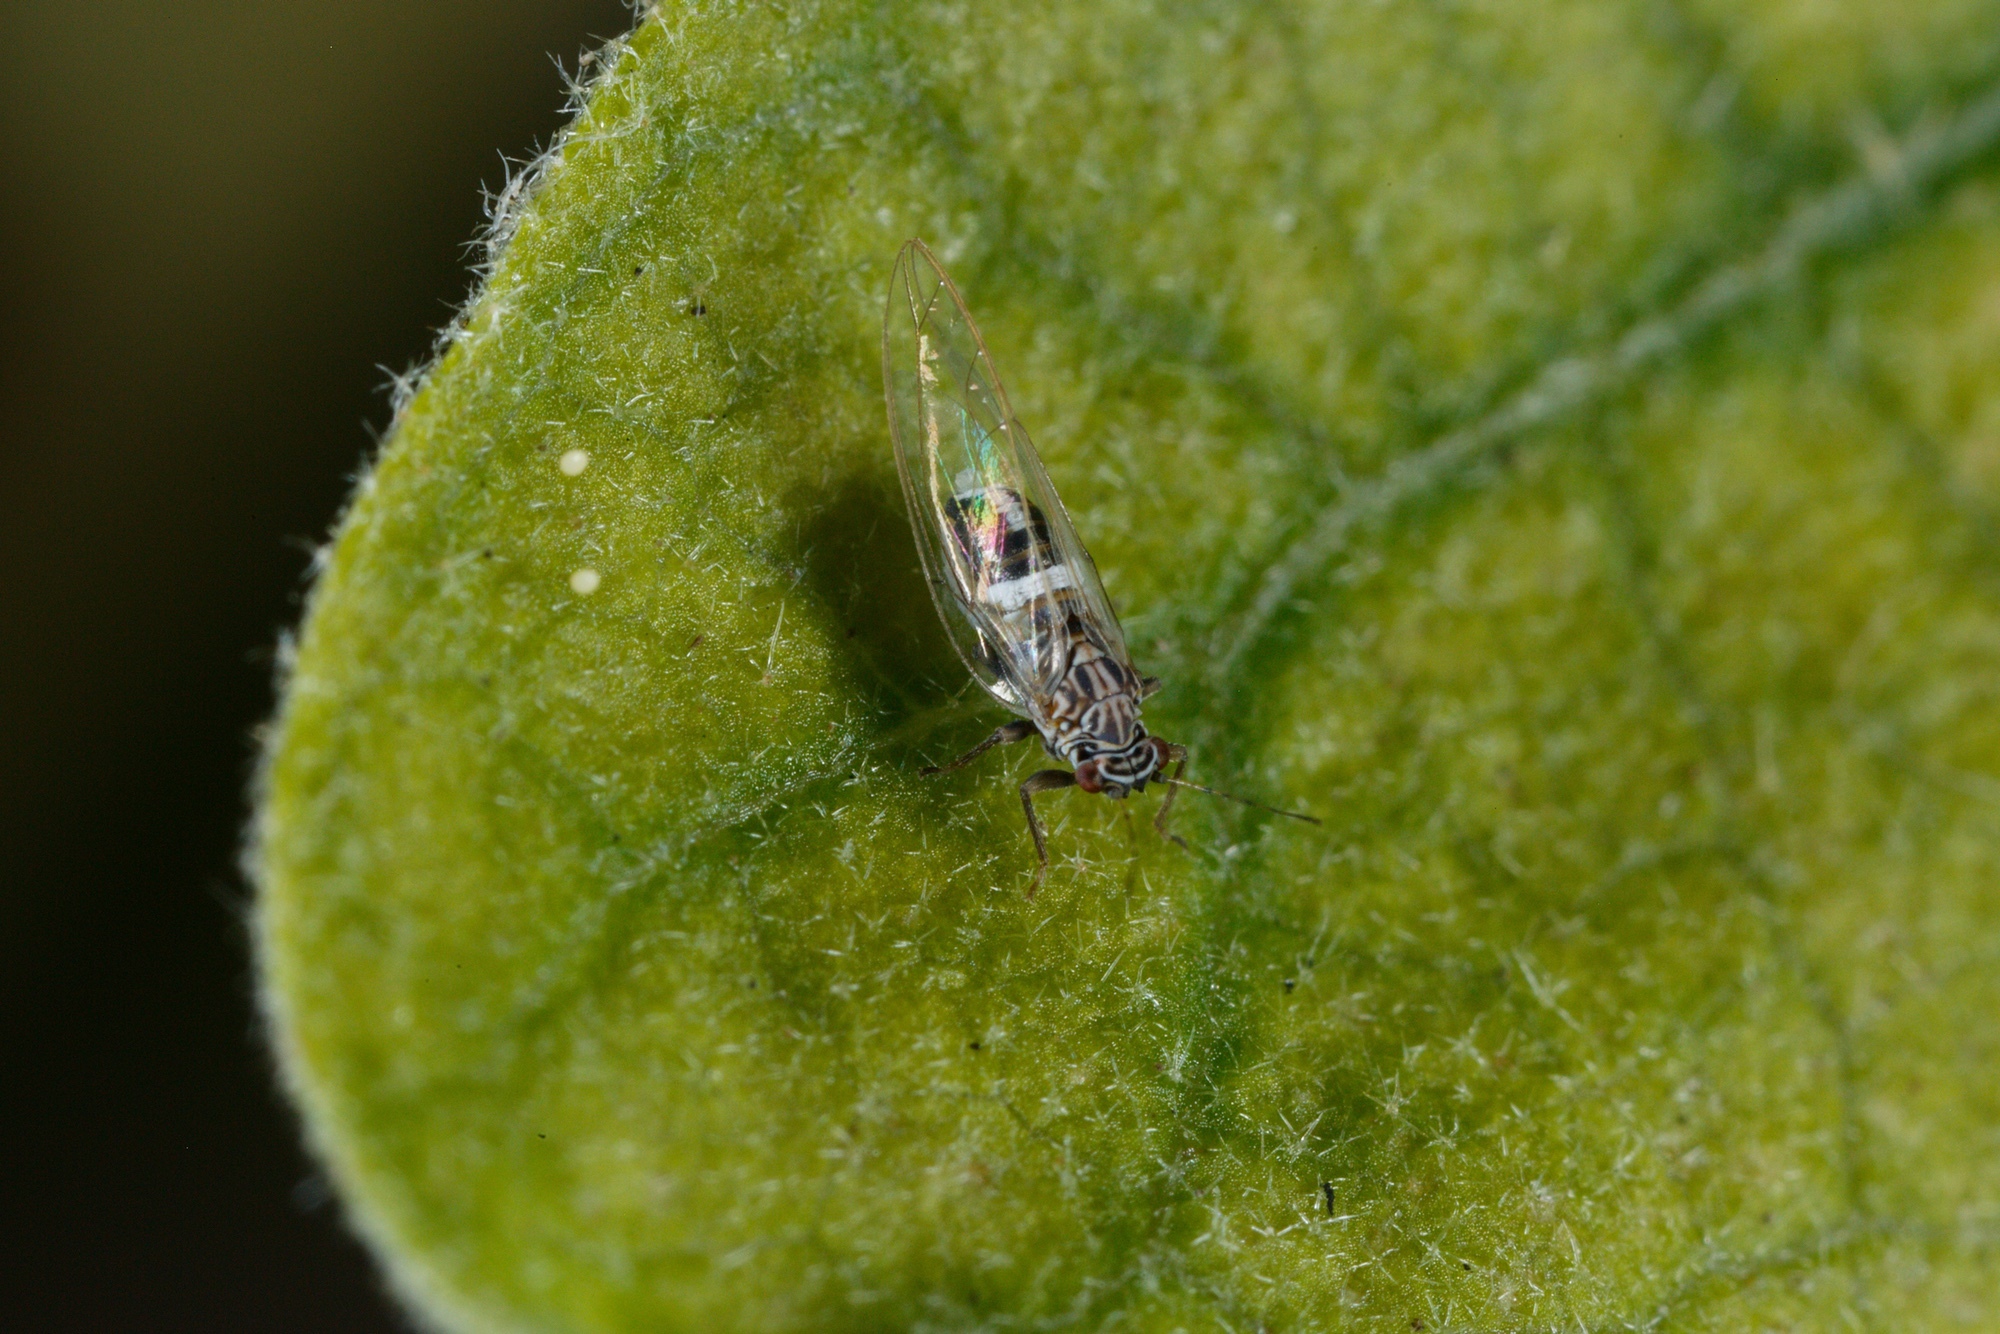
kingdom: Animalia
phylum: Arthropoda
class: Insecta
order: Hemiptera
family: Triozidae
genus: Bactericera
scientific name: Bactericera cockerelli
